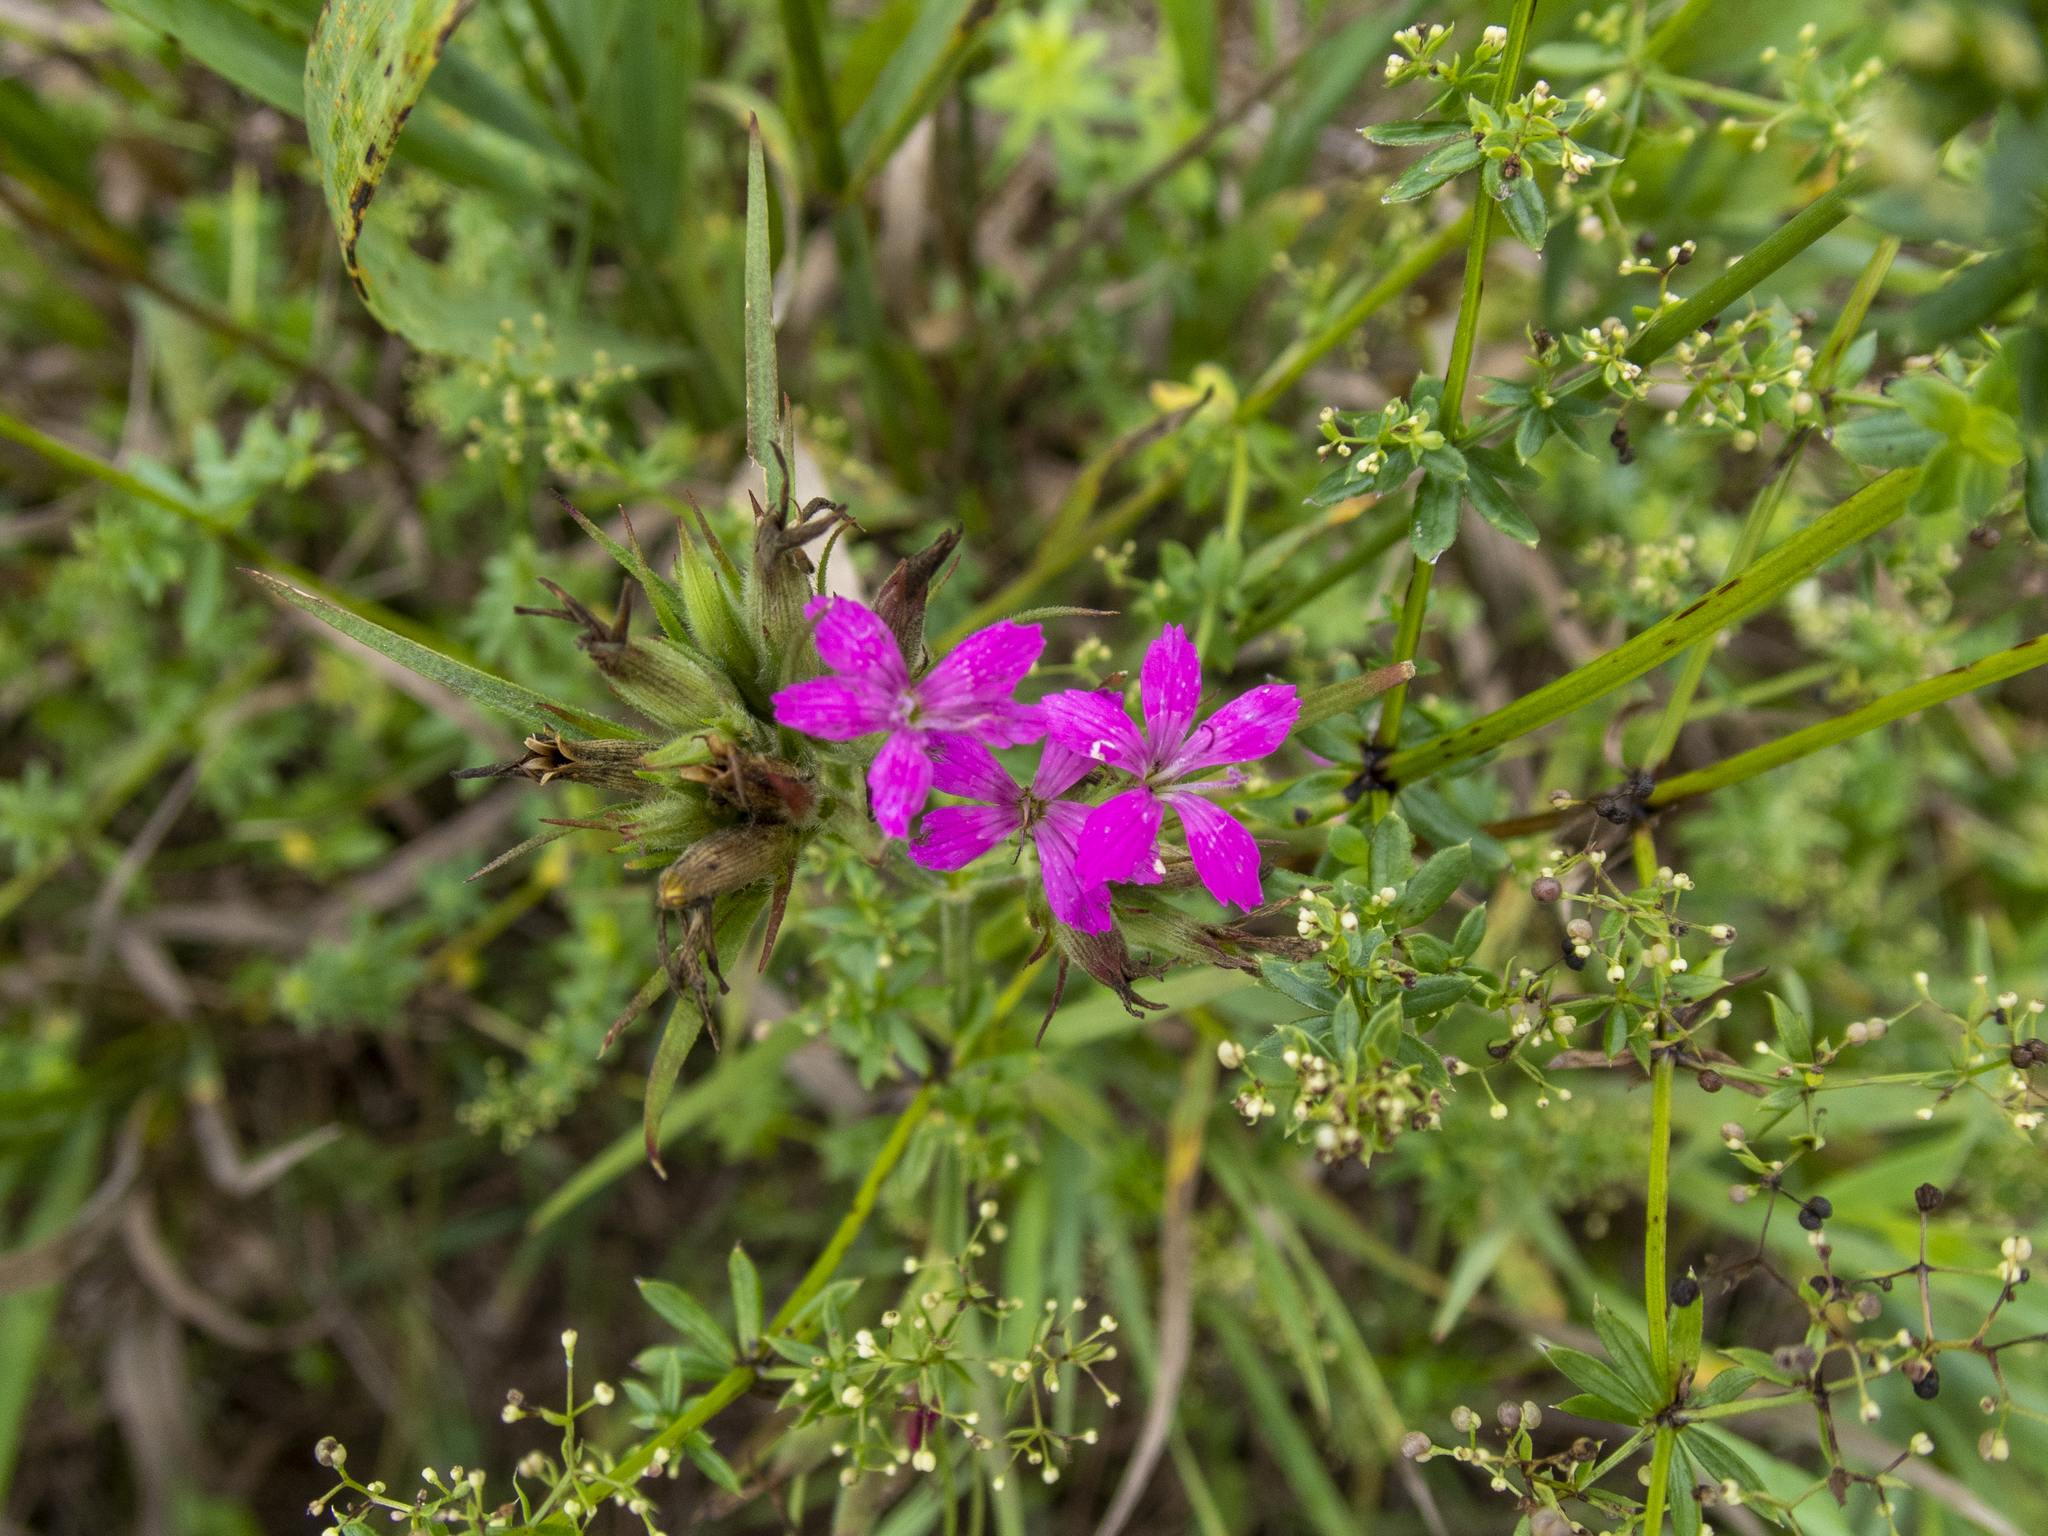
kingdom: Plantae
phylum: Tracheophyta
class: Magnoliopsida
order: Caryophyllales
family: Caryophyllaceae
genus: Dianthus
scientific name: Dianthus armeria
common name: Deptford pink
